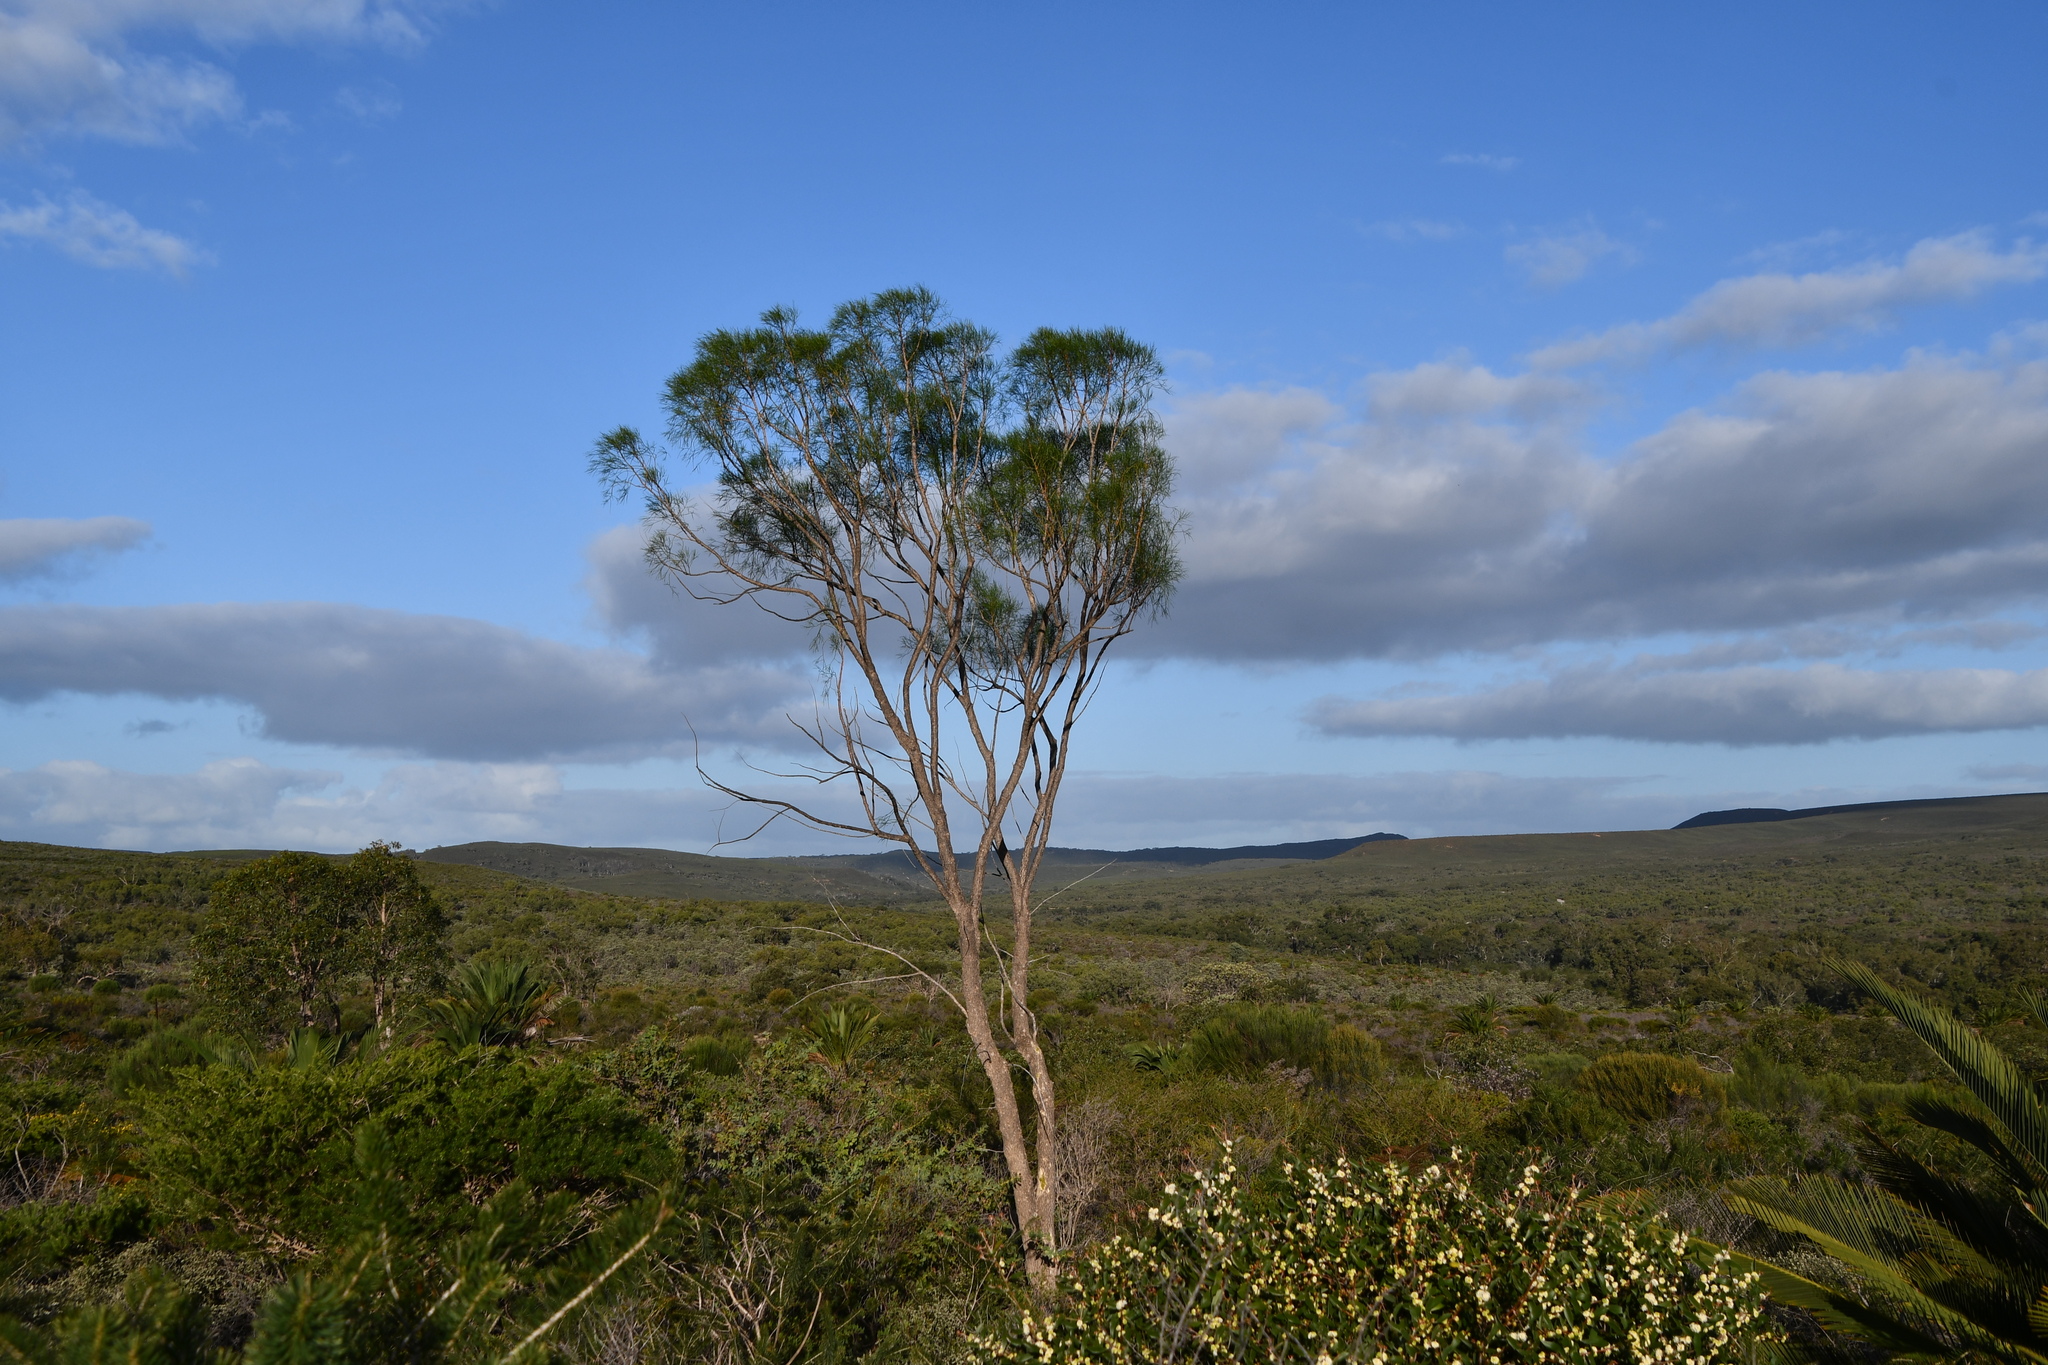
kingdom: Plantae
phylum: Tracheophyta
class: Magnoliopsida
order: Brassicales
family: Gyrostemonaceae
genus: Gyrostemon
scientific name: Gyrostemon ramulosus
